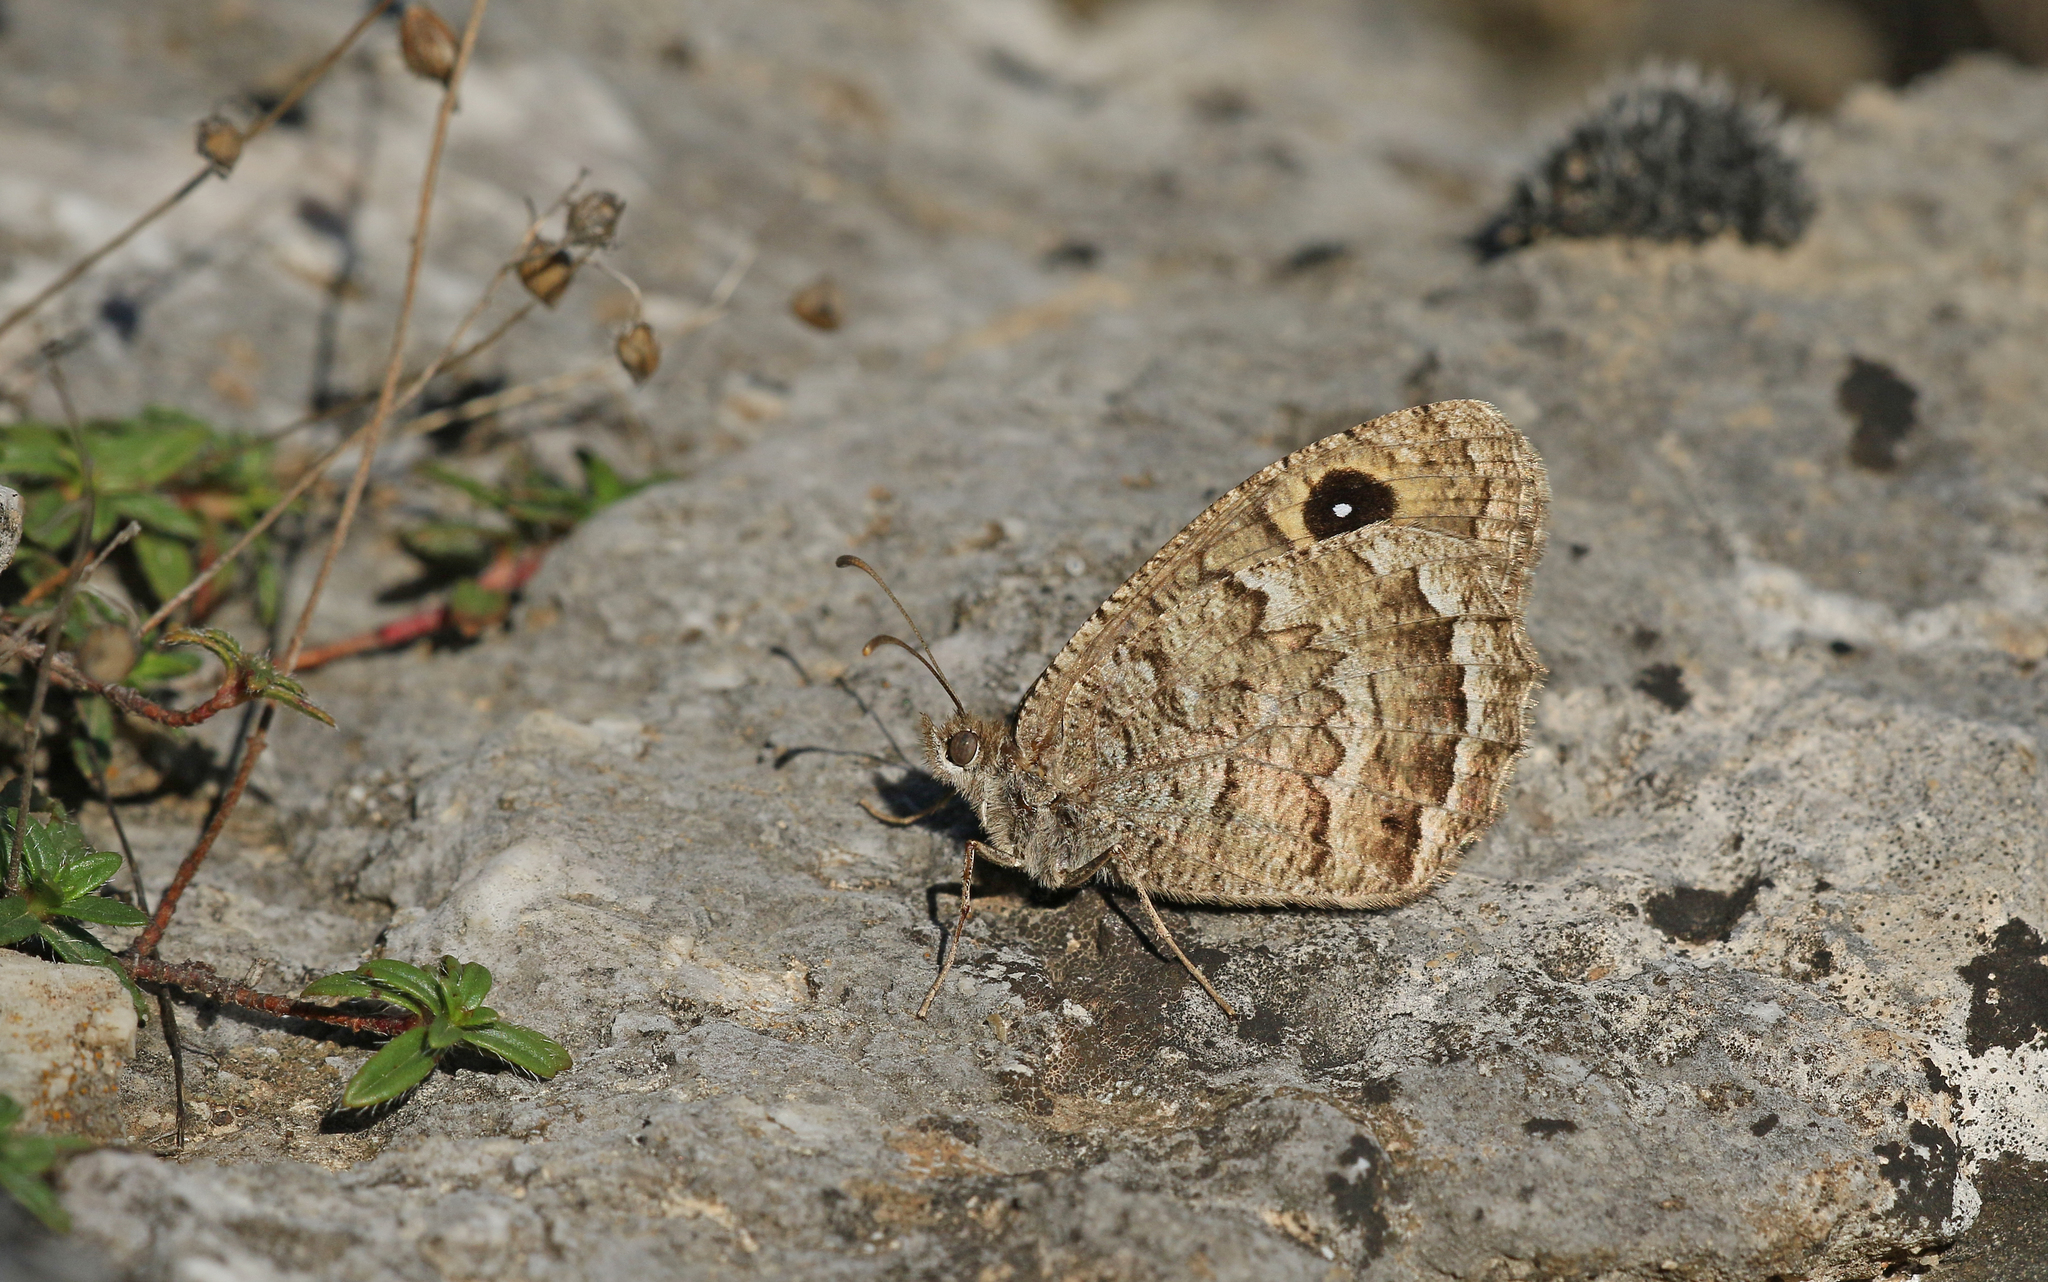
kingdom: Animalia
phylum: Arthropoda
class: Insecta
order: Lepidoptera
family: Nymphalidae
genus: Satyrus
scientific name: Satyrus actaea
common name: Black satyr
